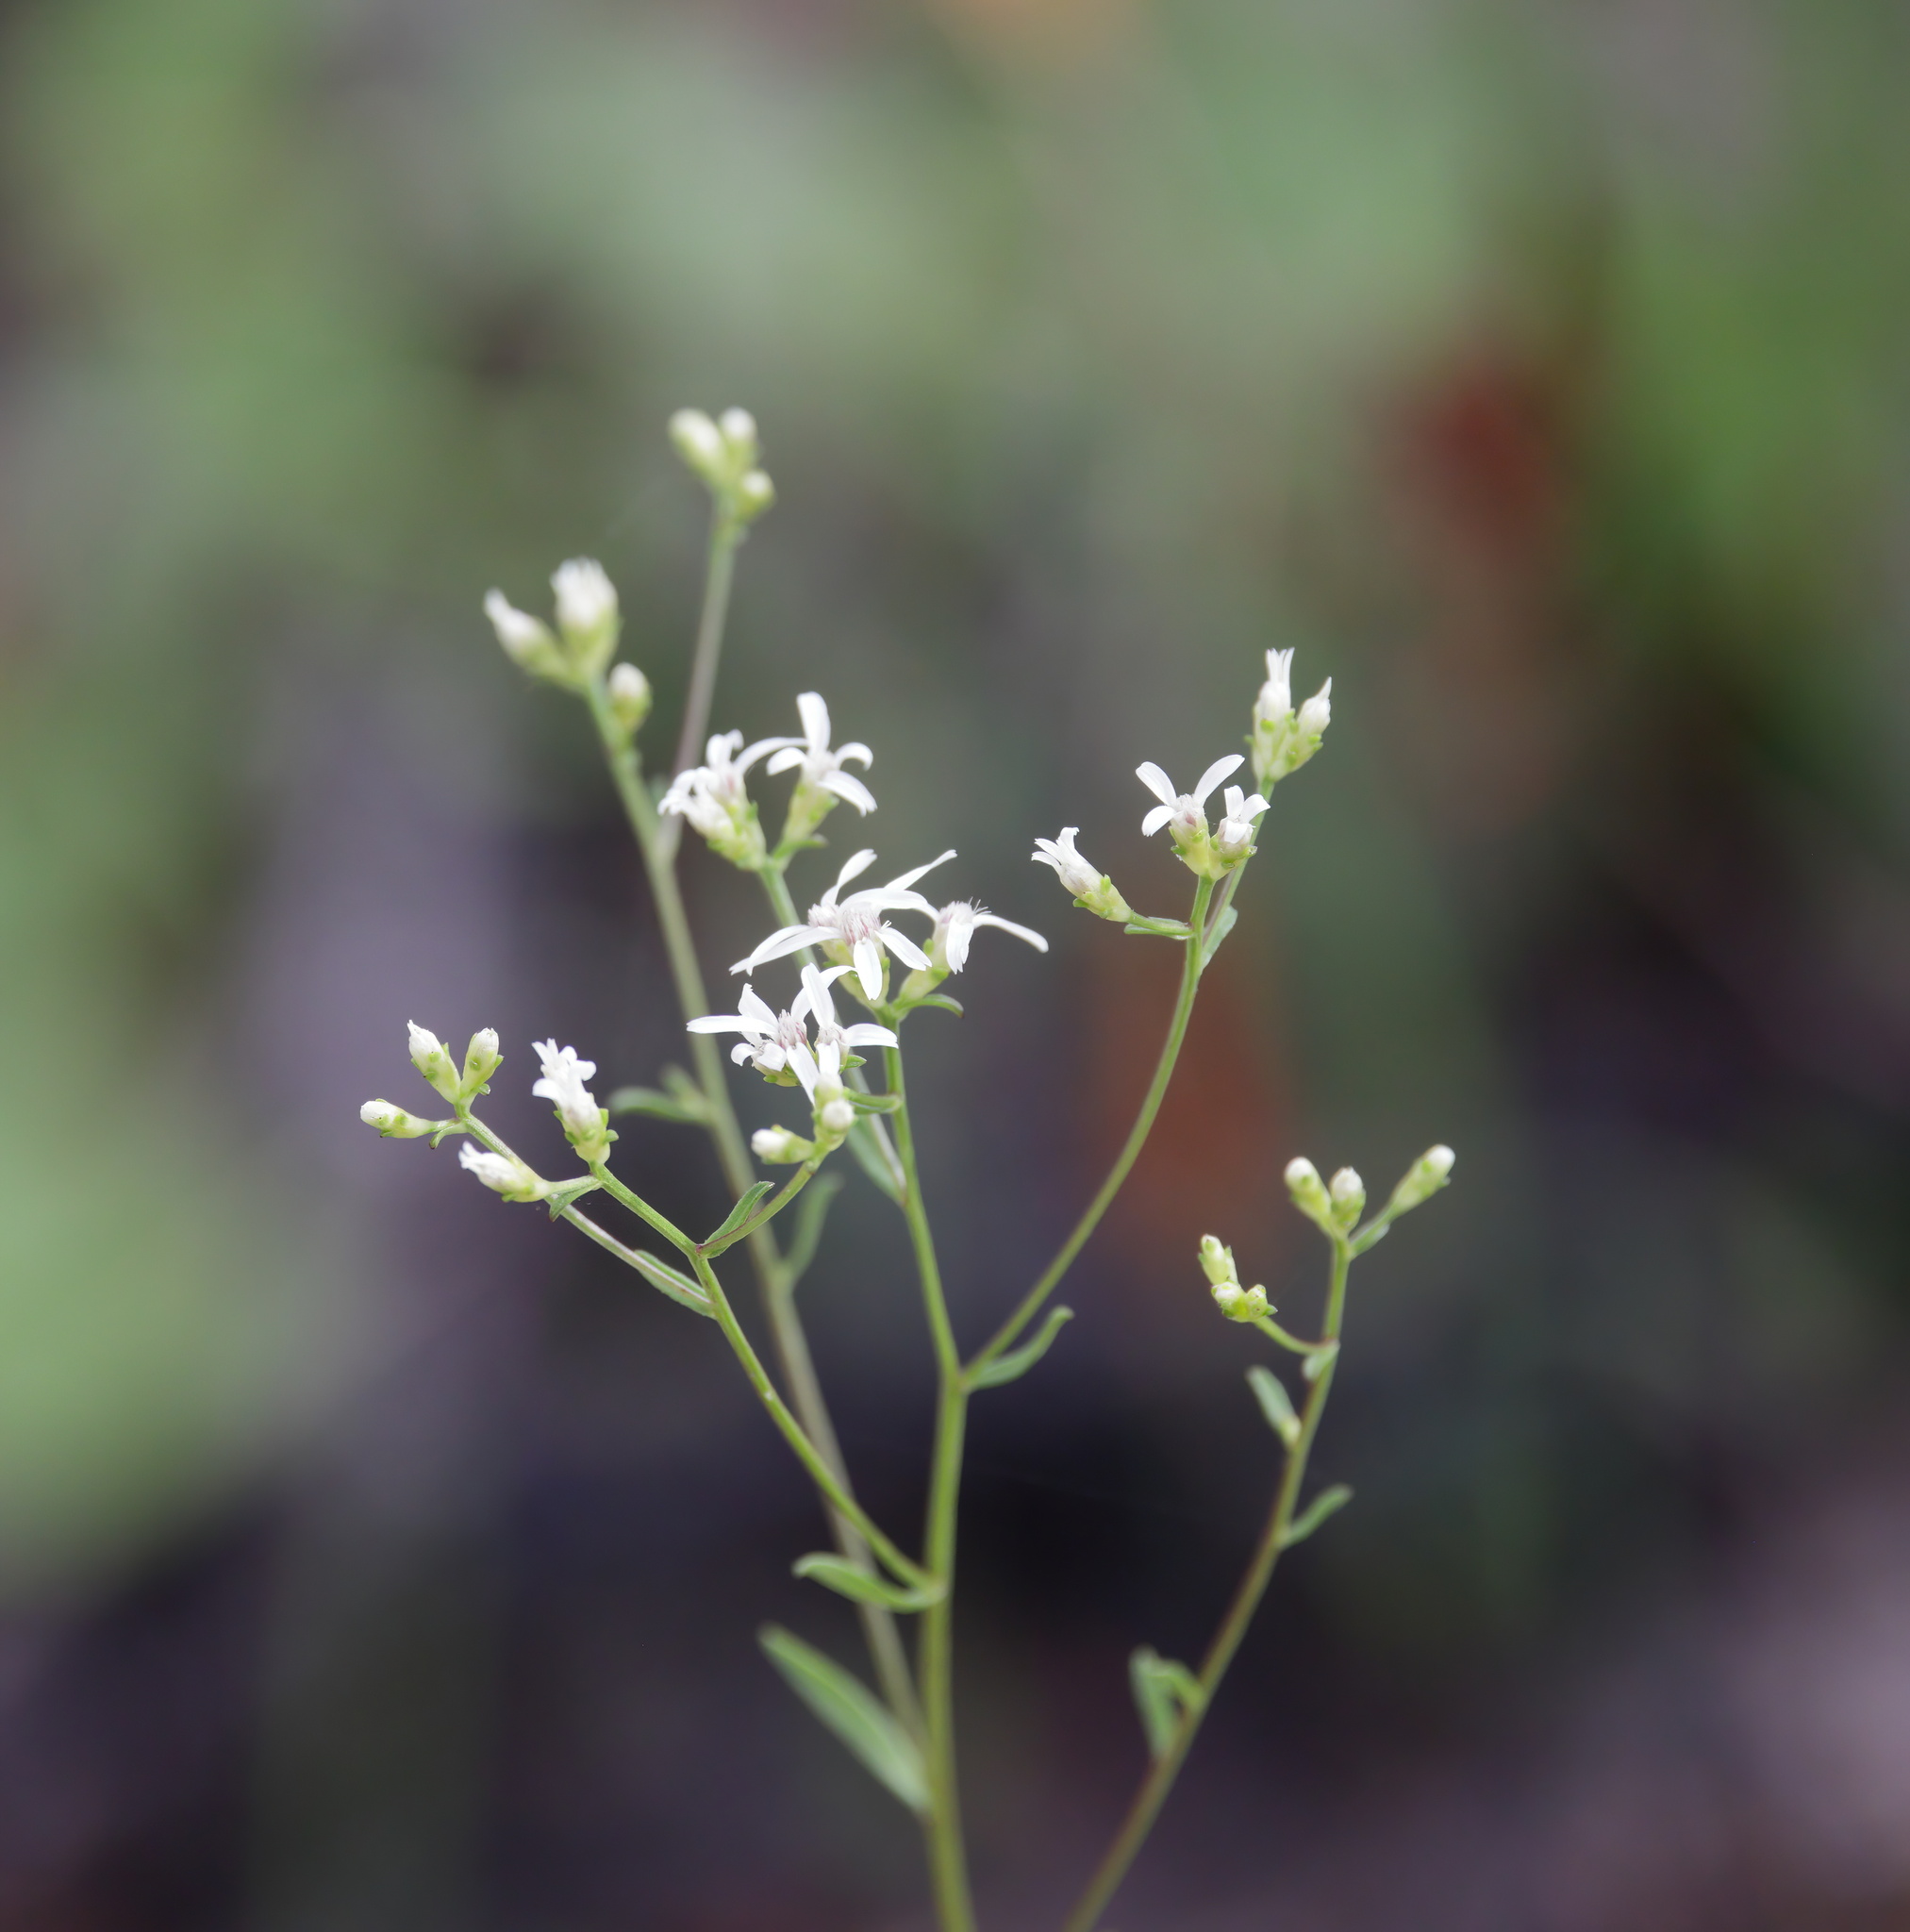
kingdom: Plantae
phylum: Tracheophyta
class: Magnoliopsida
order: Asterales
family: Asteraceae
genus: Sericocarpus
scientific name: Sericocarpus linifolius
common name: Narrow-leaf aster
